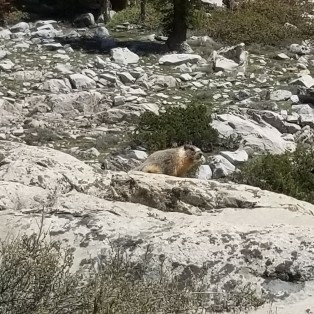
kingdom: Animalia
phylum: Chordata
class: Mammalia
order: Rodentia
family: Sciuridae
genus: Marmota
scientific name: Marmota flaviventris
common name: Yellow-bellied marmot
